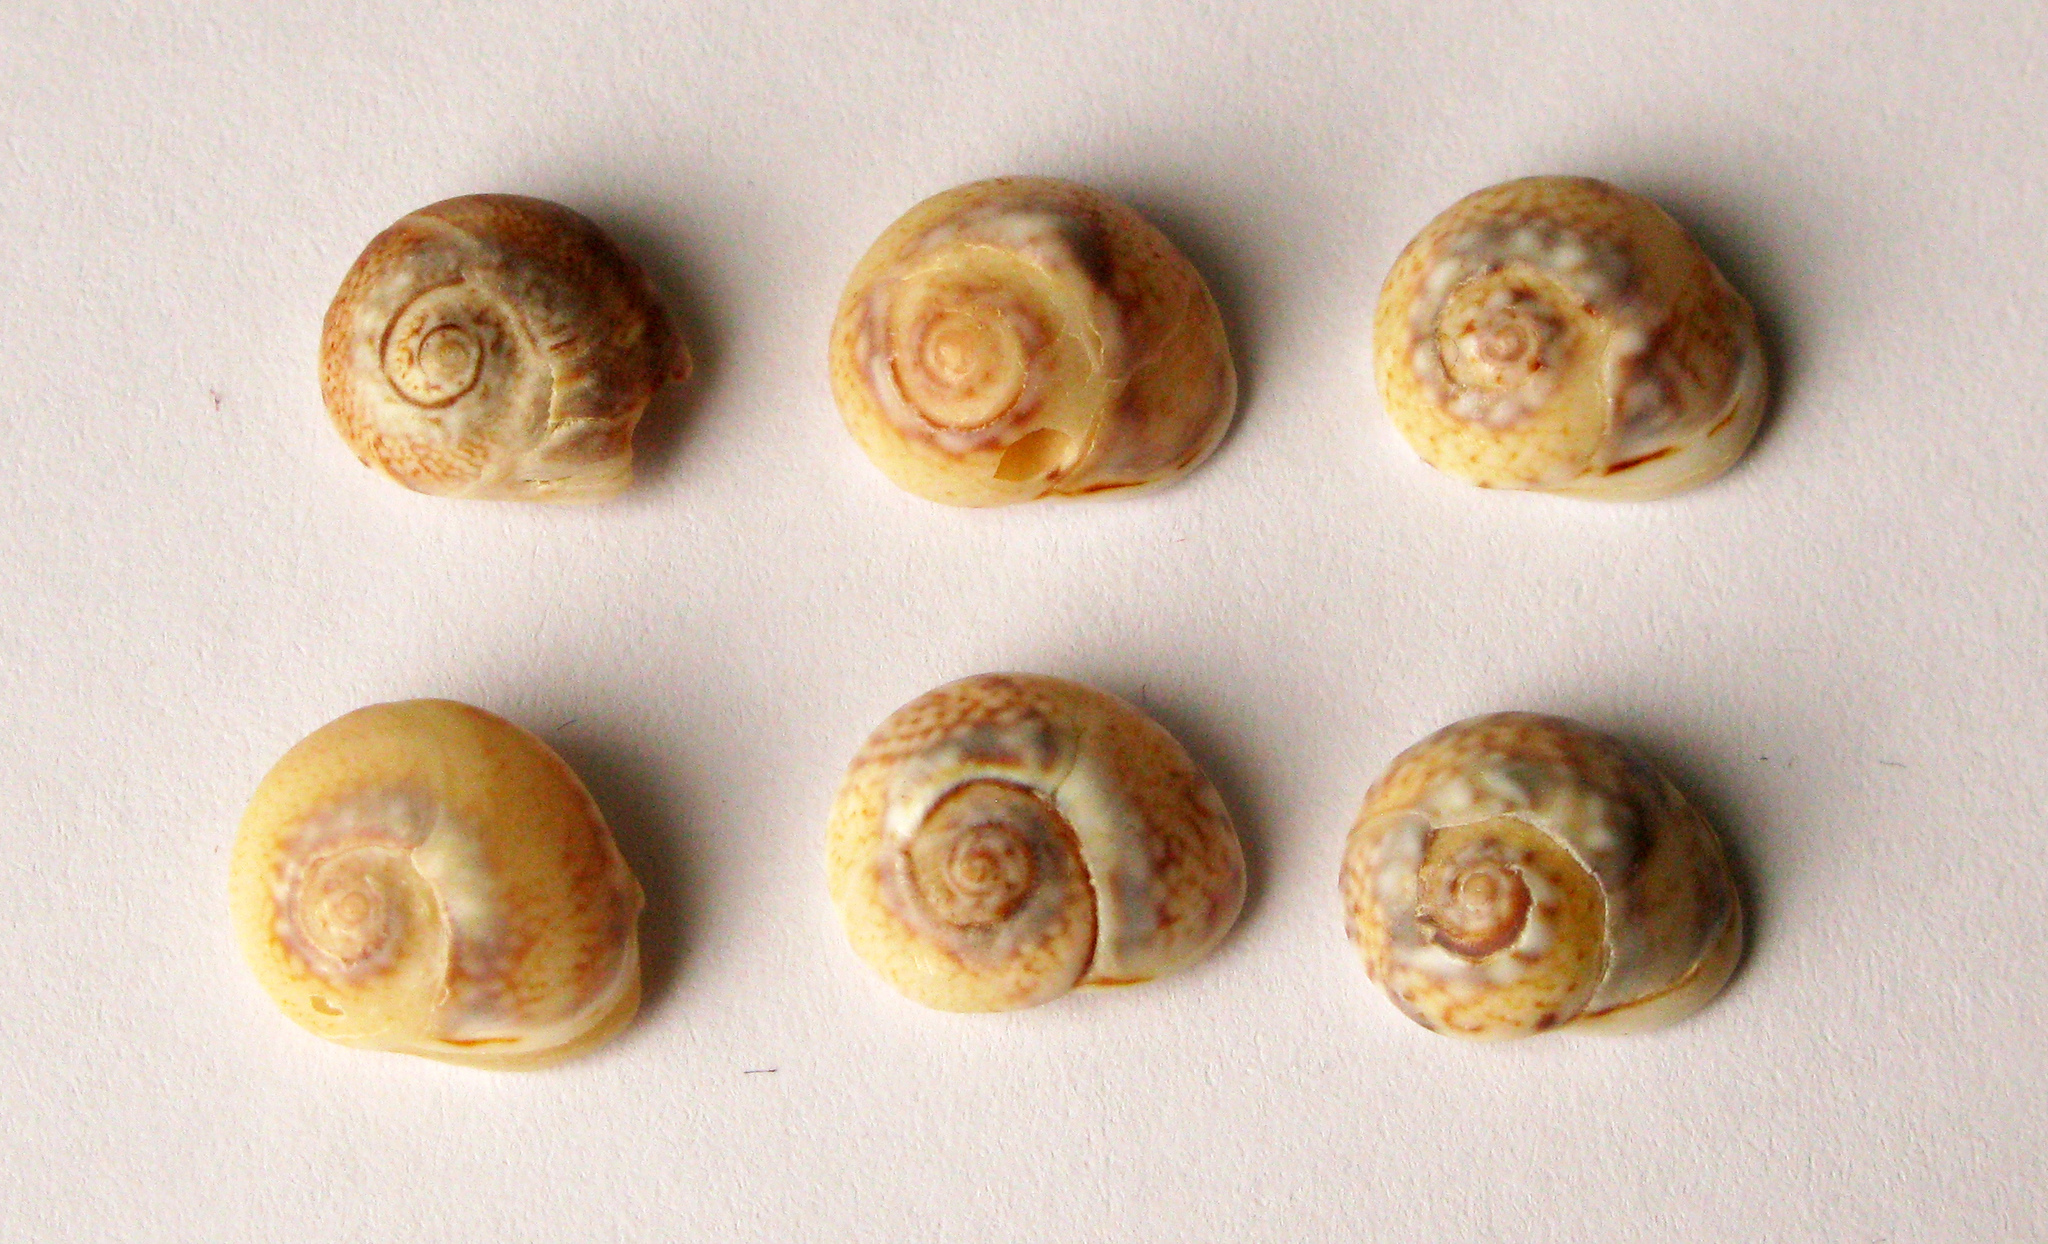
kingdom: Animalia
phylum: Mollusca
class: Gastropoda
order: Neogastropoda
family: Nassariidae
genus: Tritia
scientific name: Tritia pellucida
